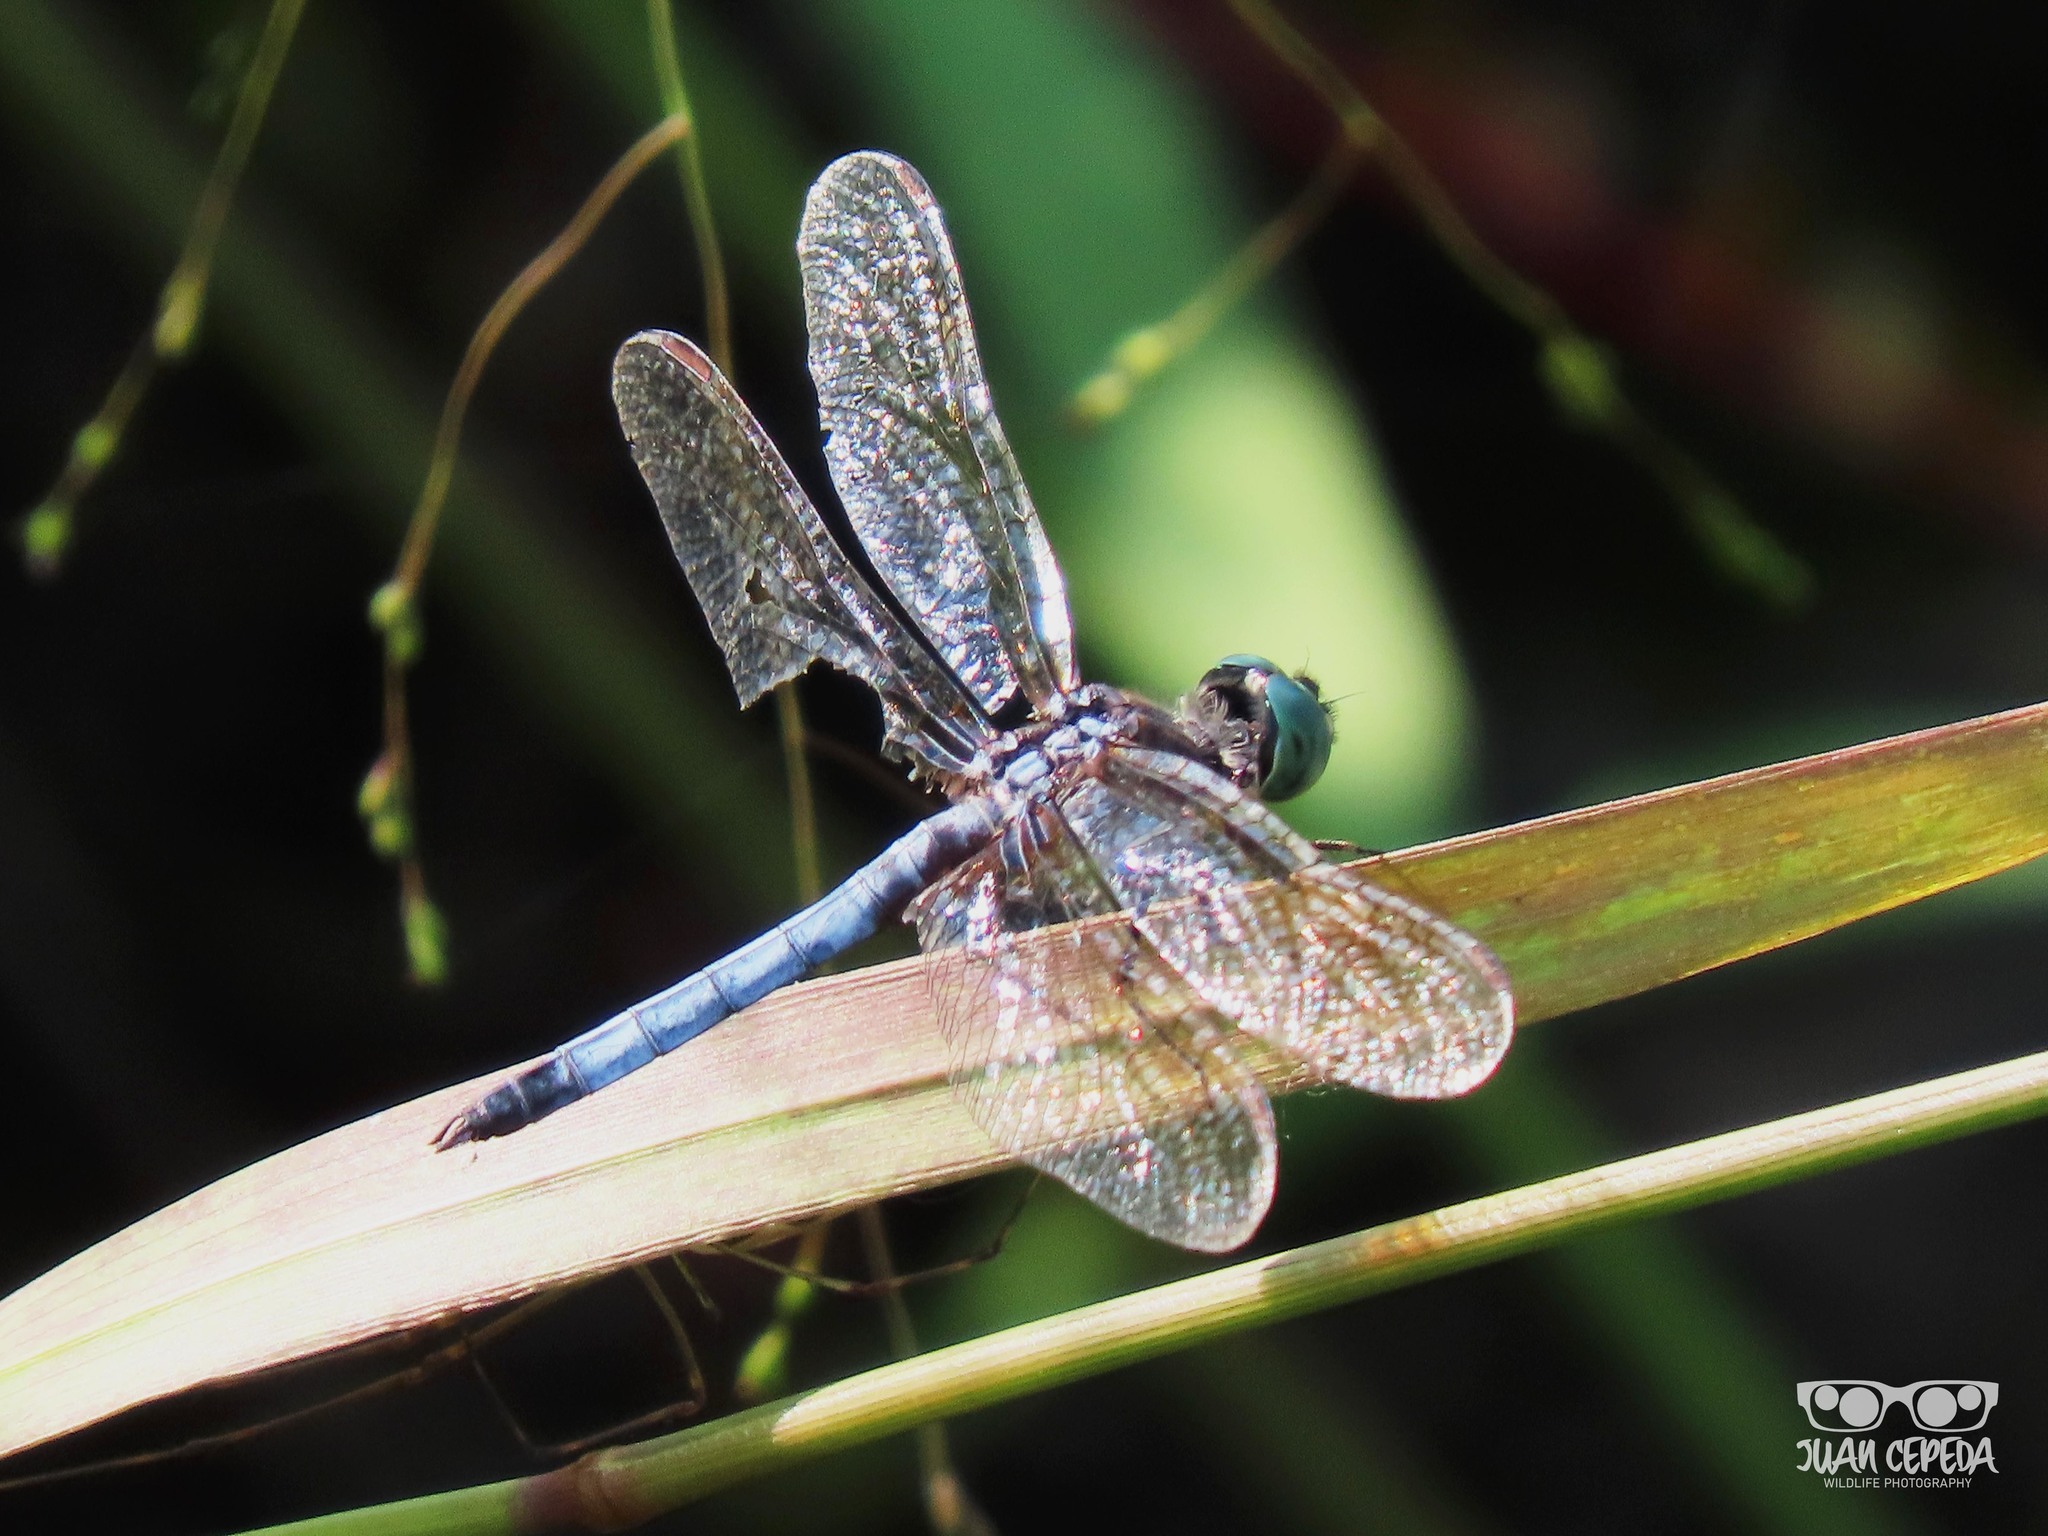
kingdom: Animalia
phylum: Arthropoda
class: Insecta
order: Odonata
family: Libellulidae
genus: Pachydiplax
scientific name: Pachydiplax longipennis
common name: Blue dasher
